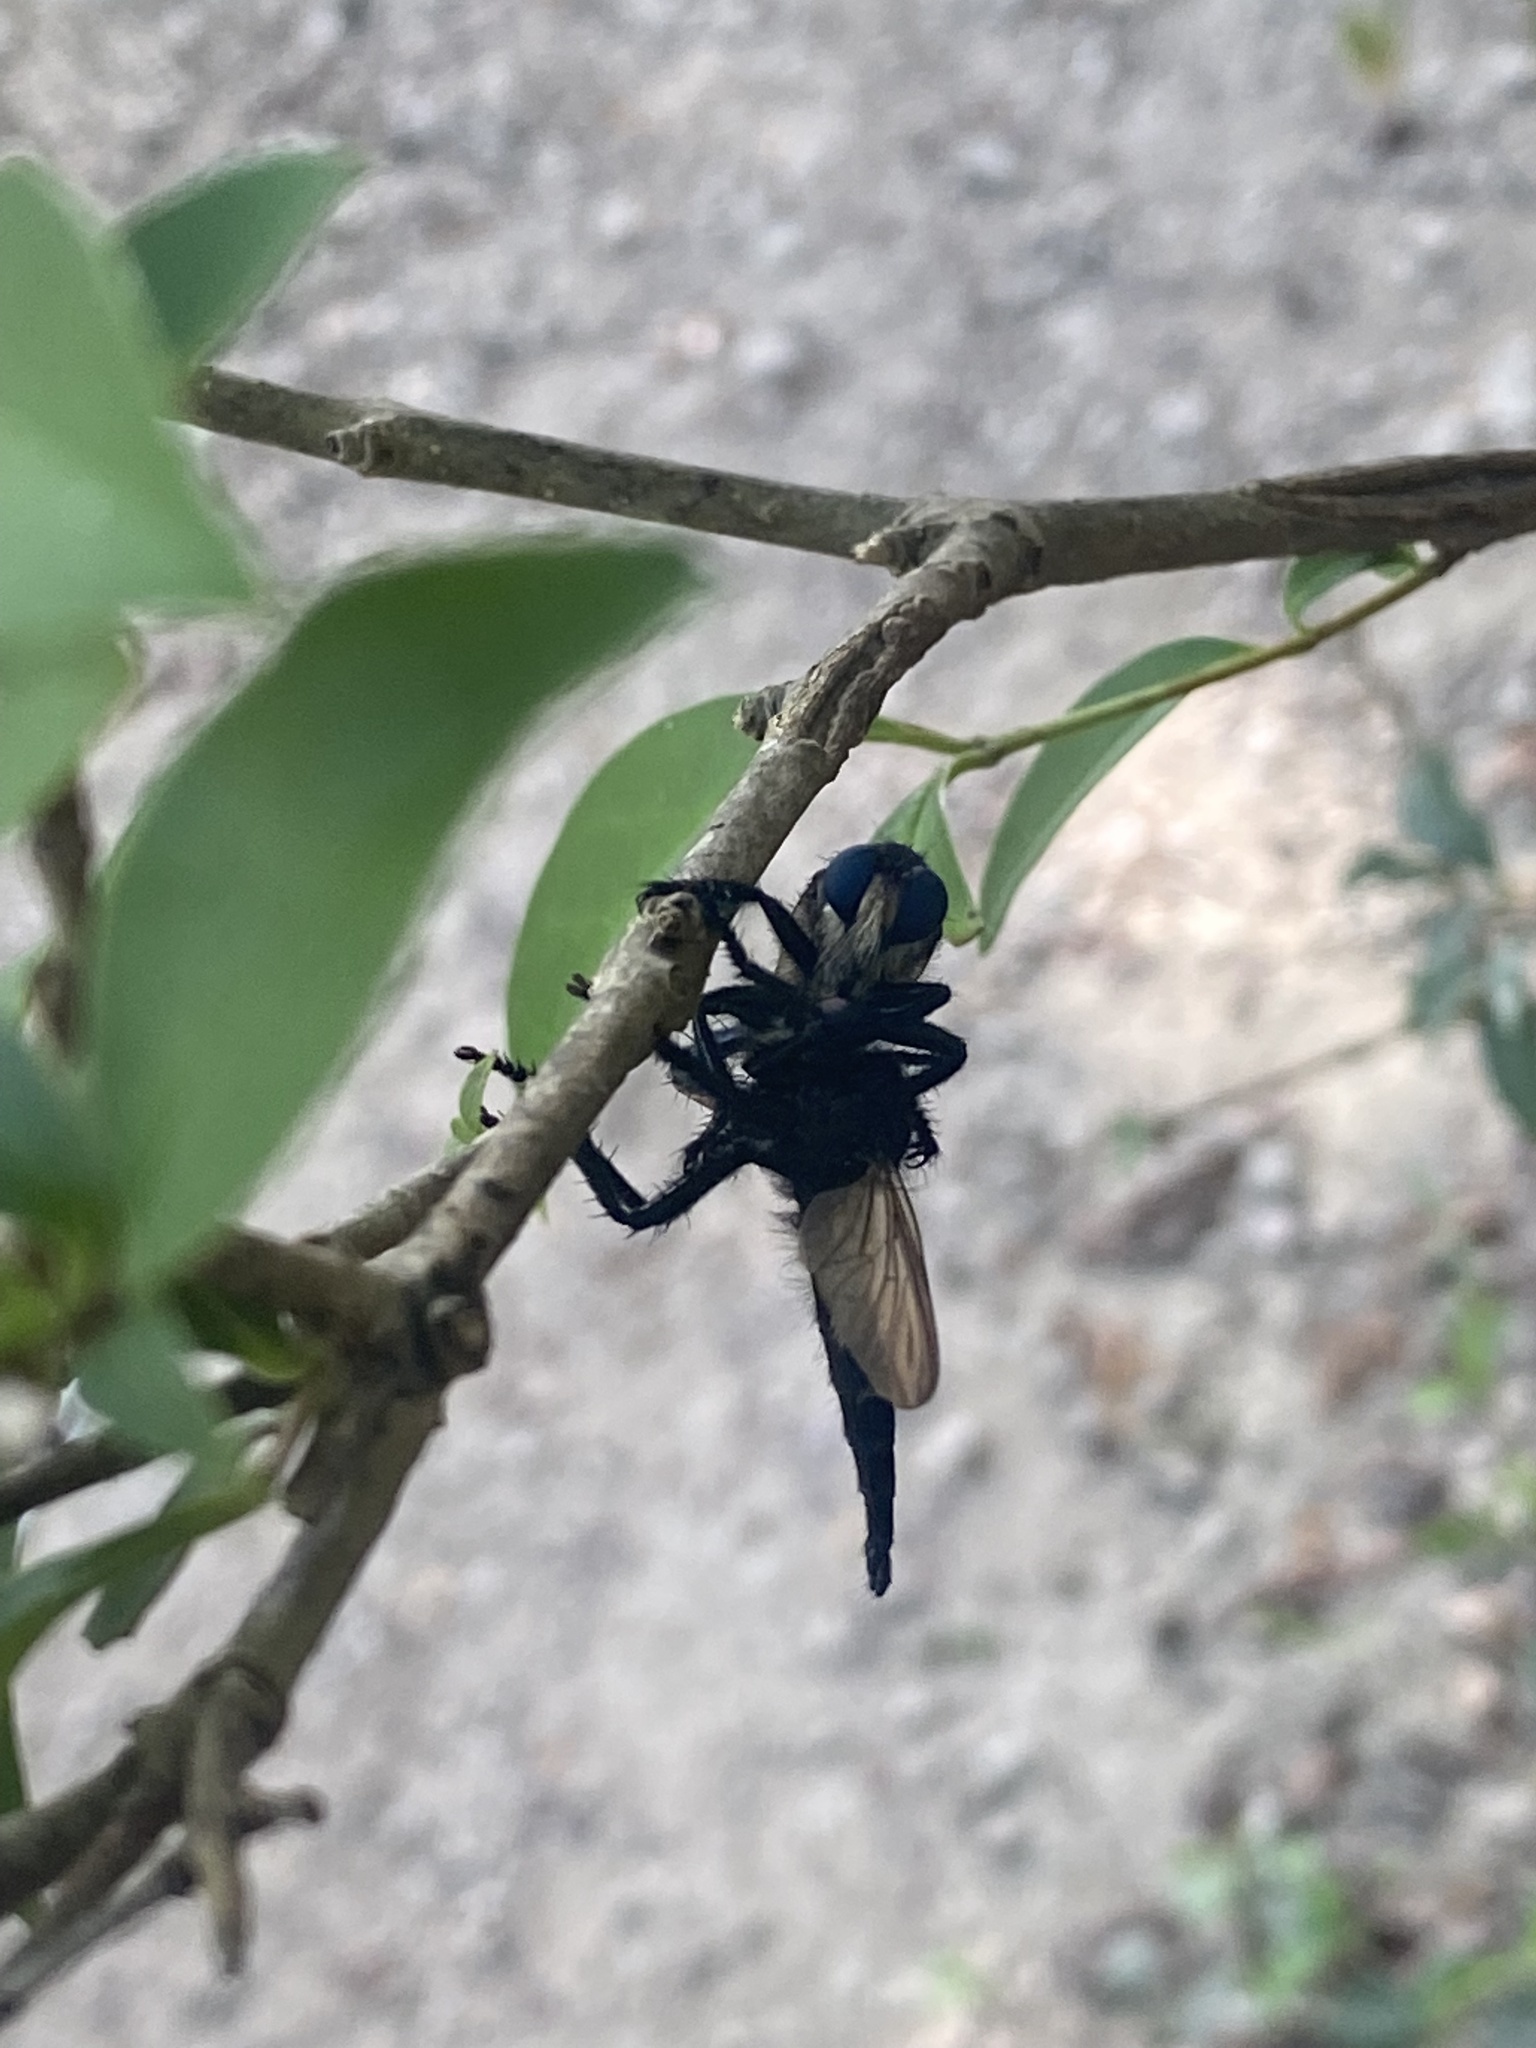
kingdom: Animalia
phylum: Arthropoda
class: Insecta
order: Diptera
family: Asilidae
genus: Promachus
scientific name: Promachus painteri
